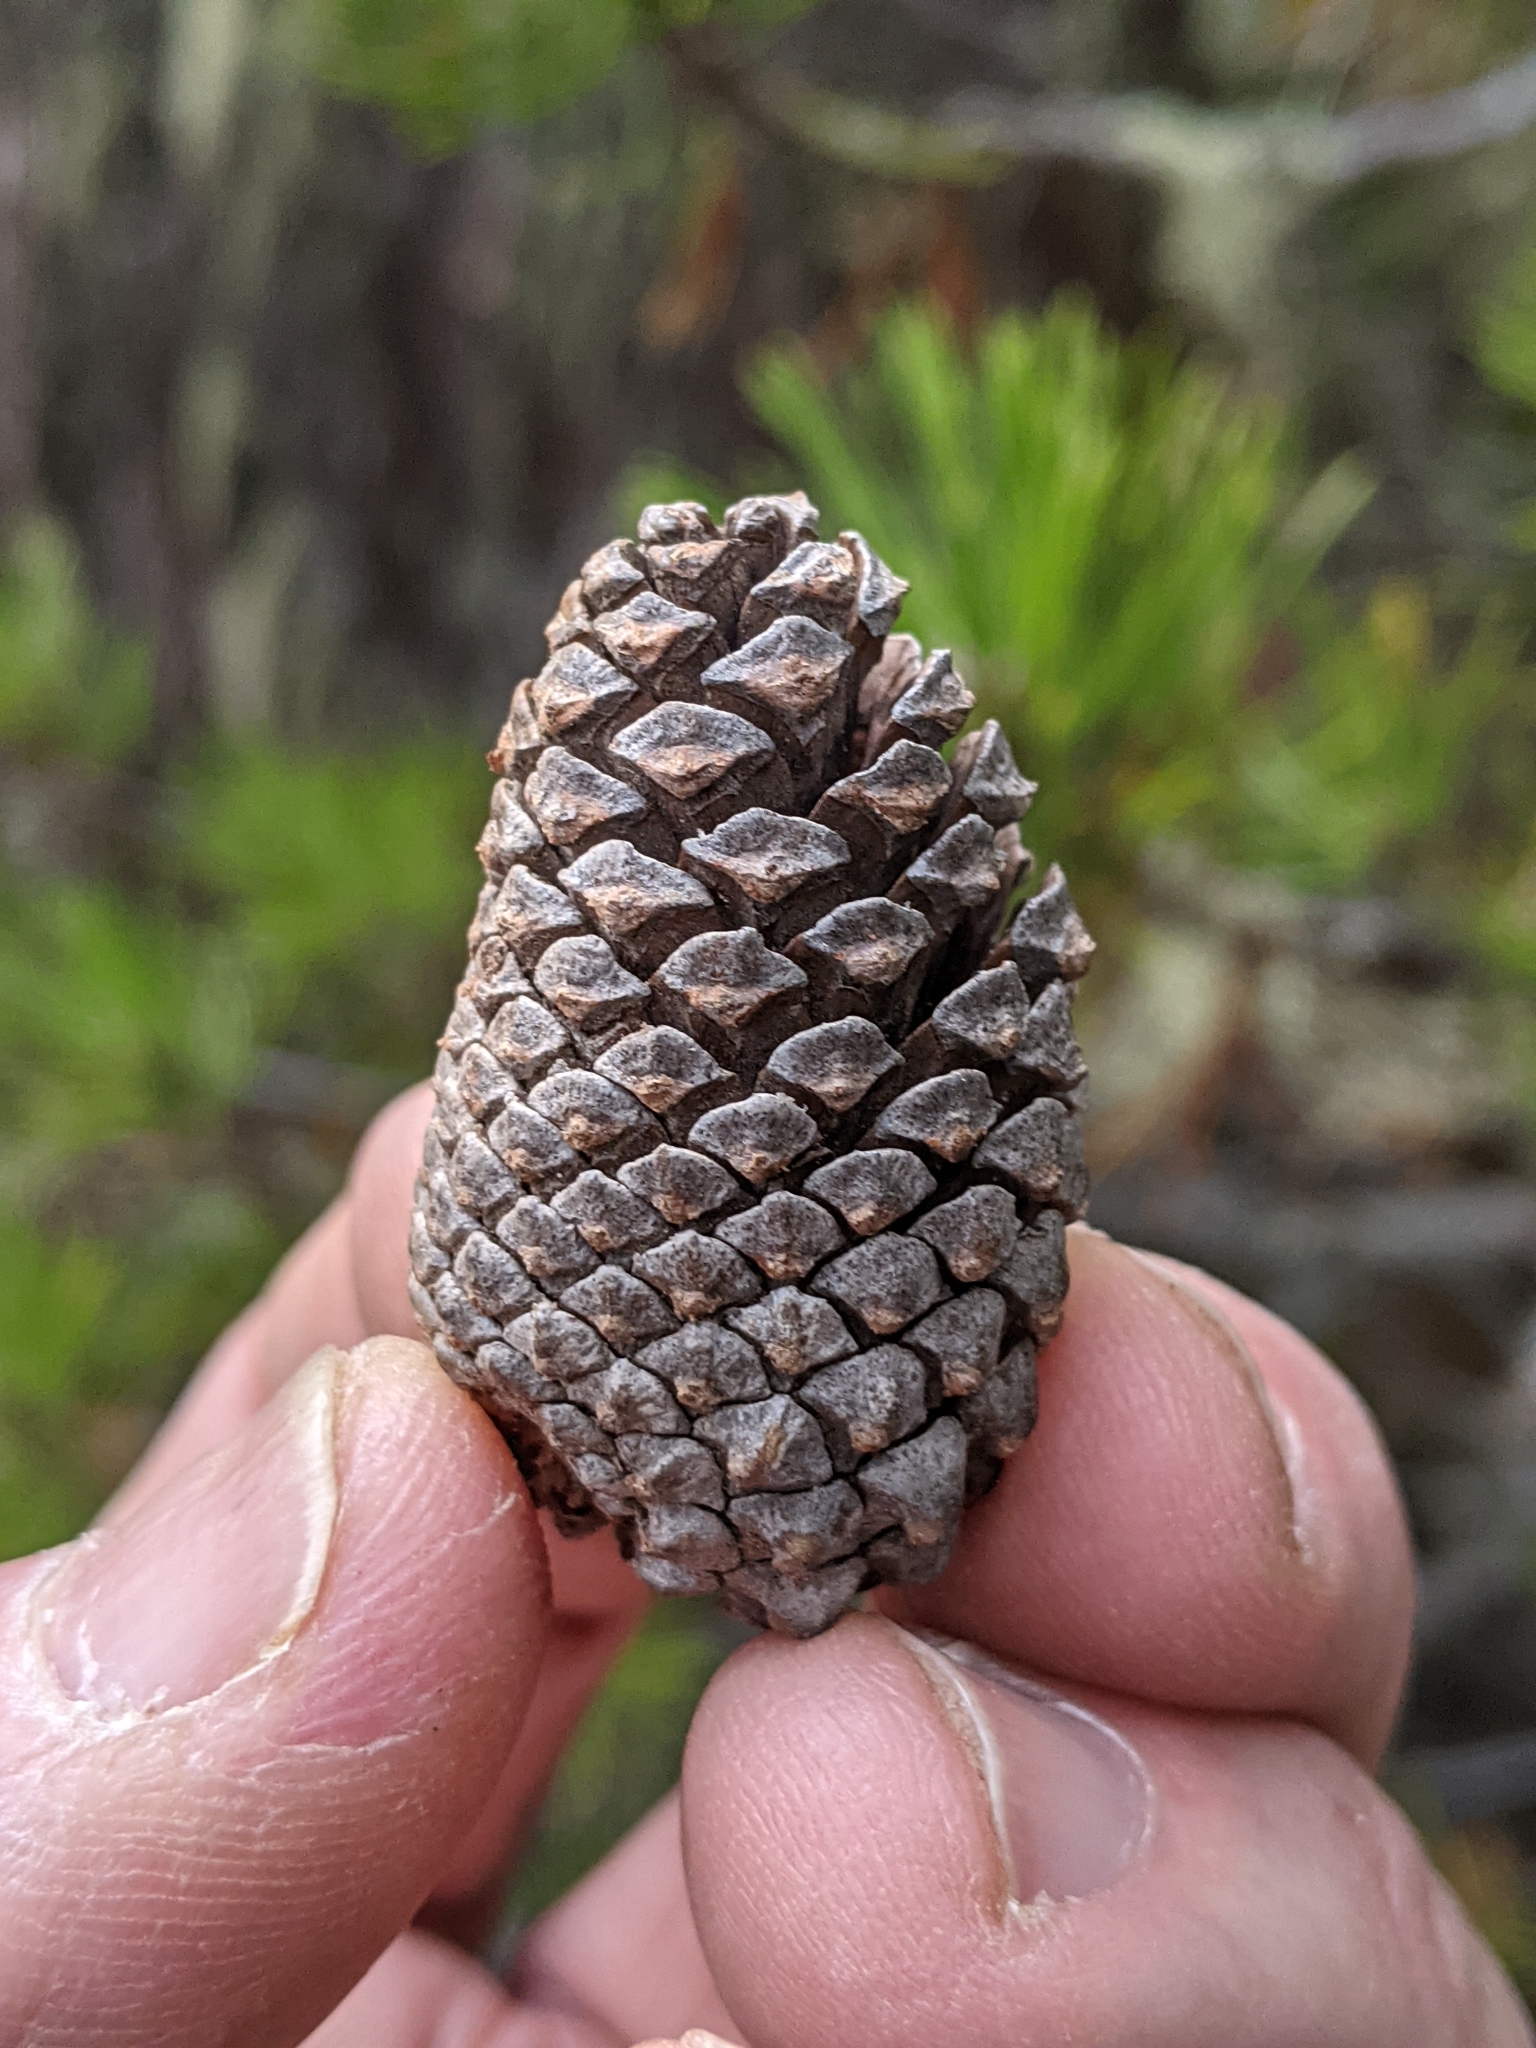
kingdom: Plantae
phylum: Tracheophyta
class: Pinopsida
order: Pinales
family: Pinaceae
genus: Pinus
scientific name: Pinus contorta
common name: Lodgepole pine
